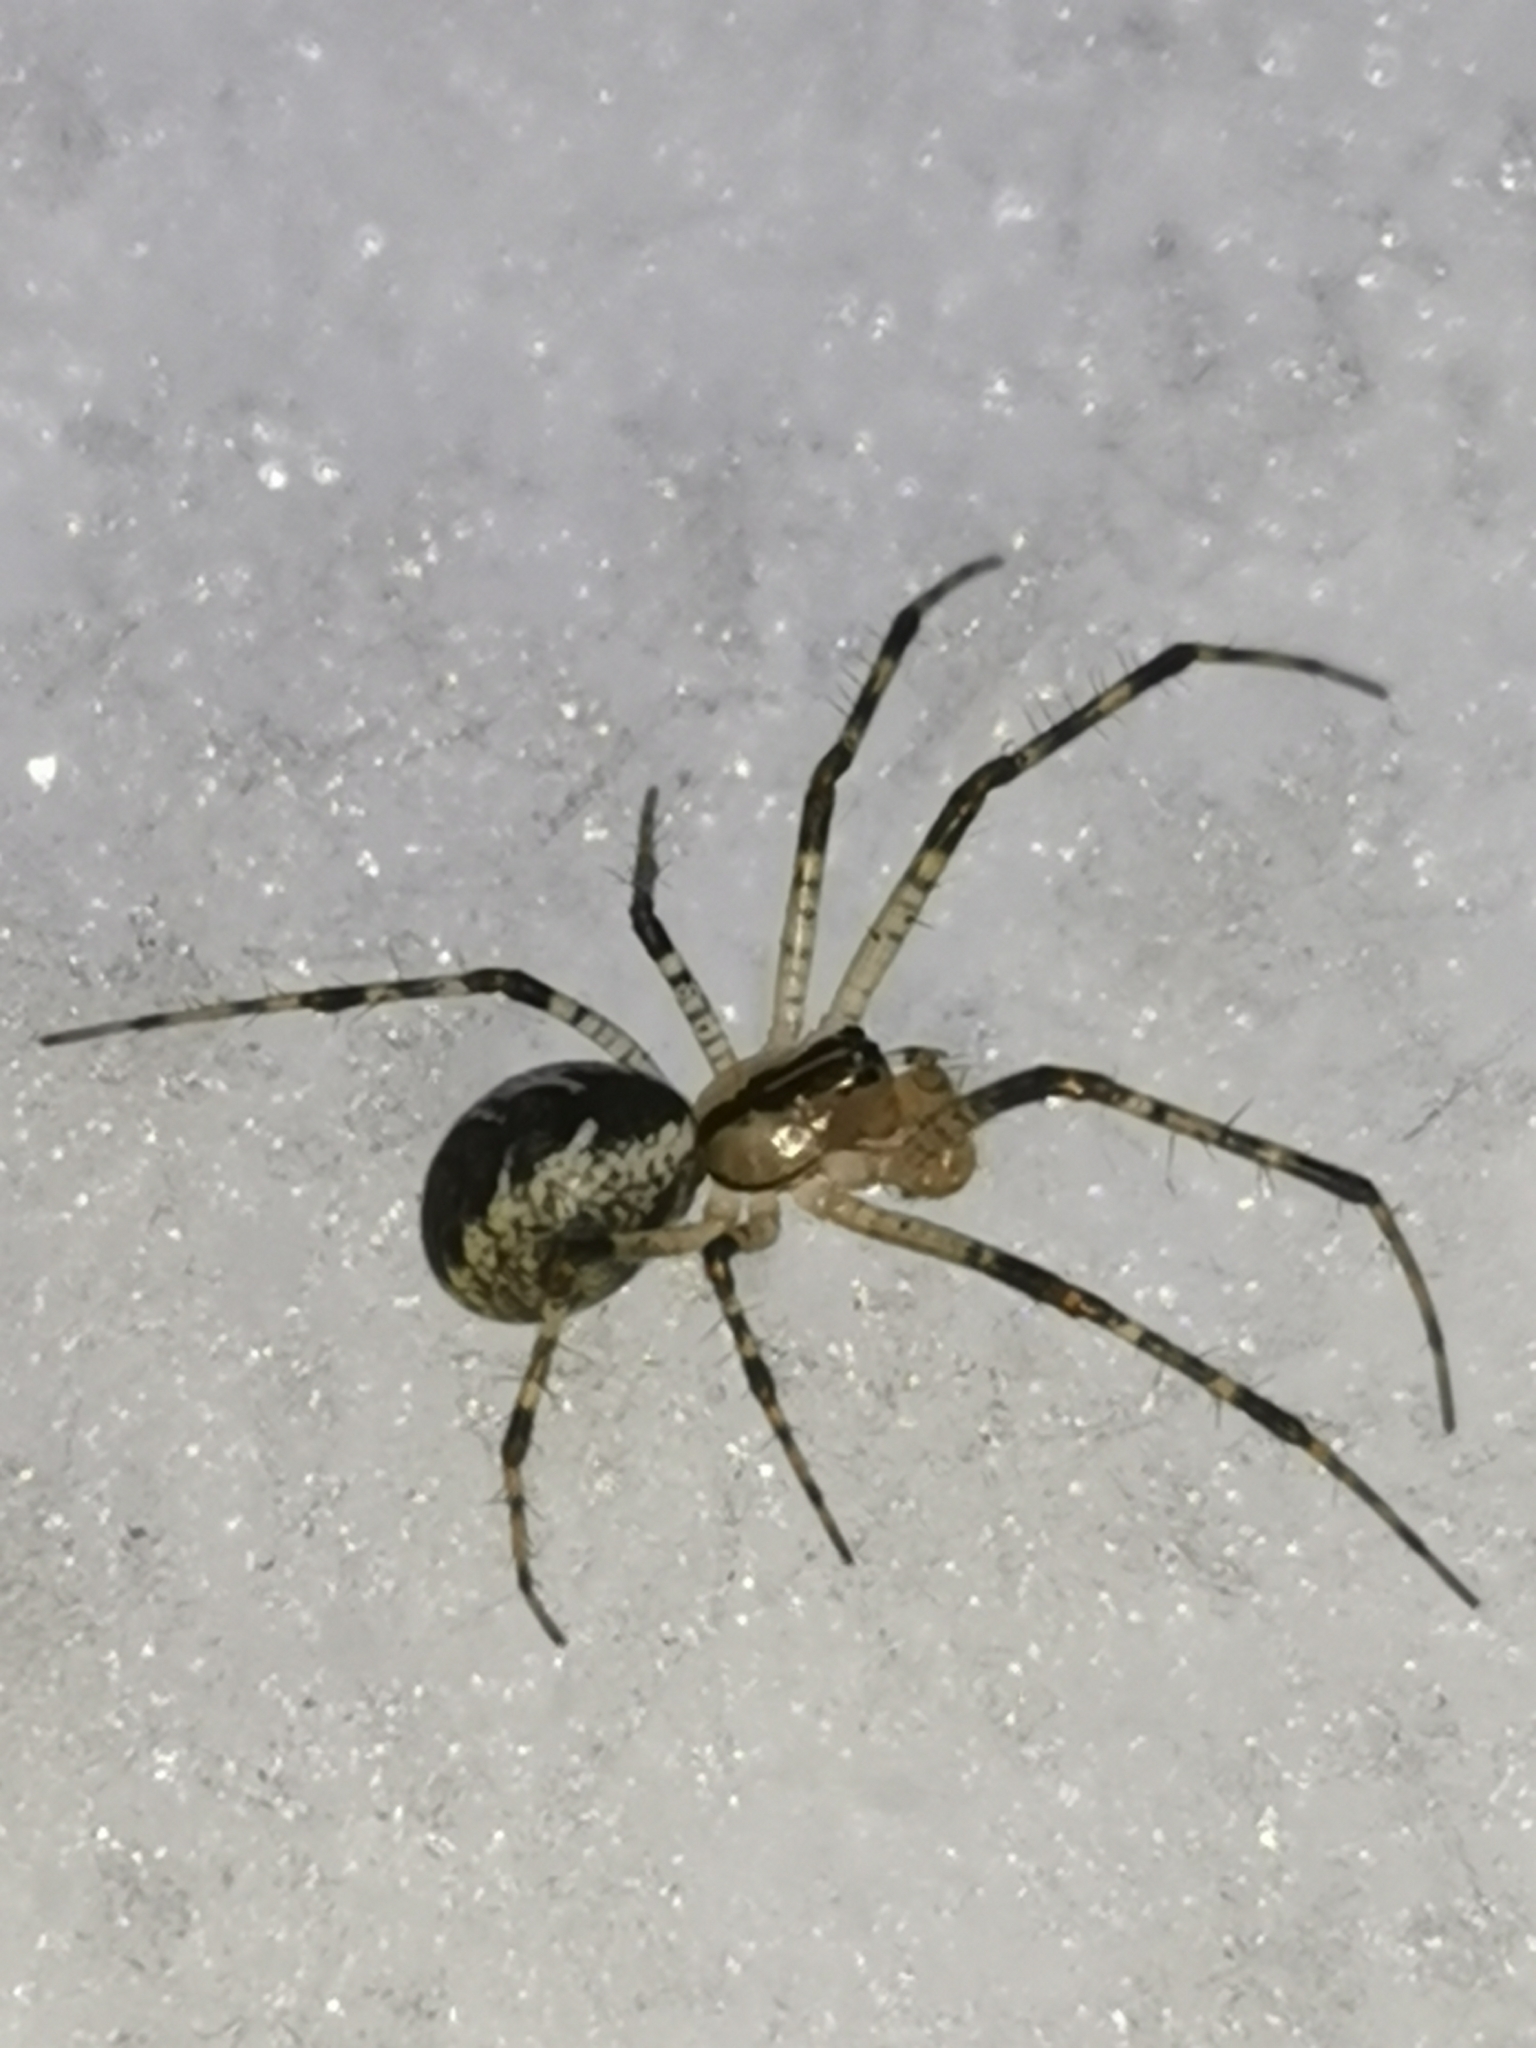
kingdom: Animalia
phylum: Arthropoda
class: Arachnida
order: Araneae
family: Linyphiidae
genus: Pityohyphantes
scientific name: Pityohyphantes phrygianus
